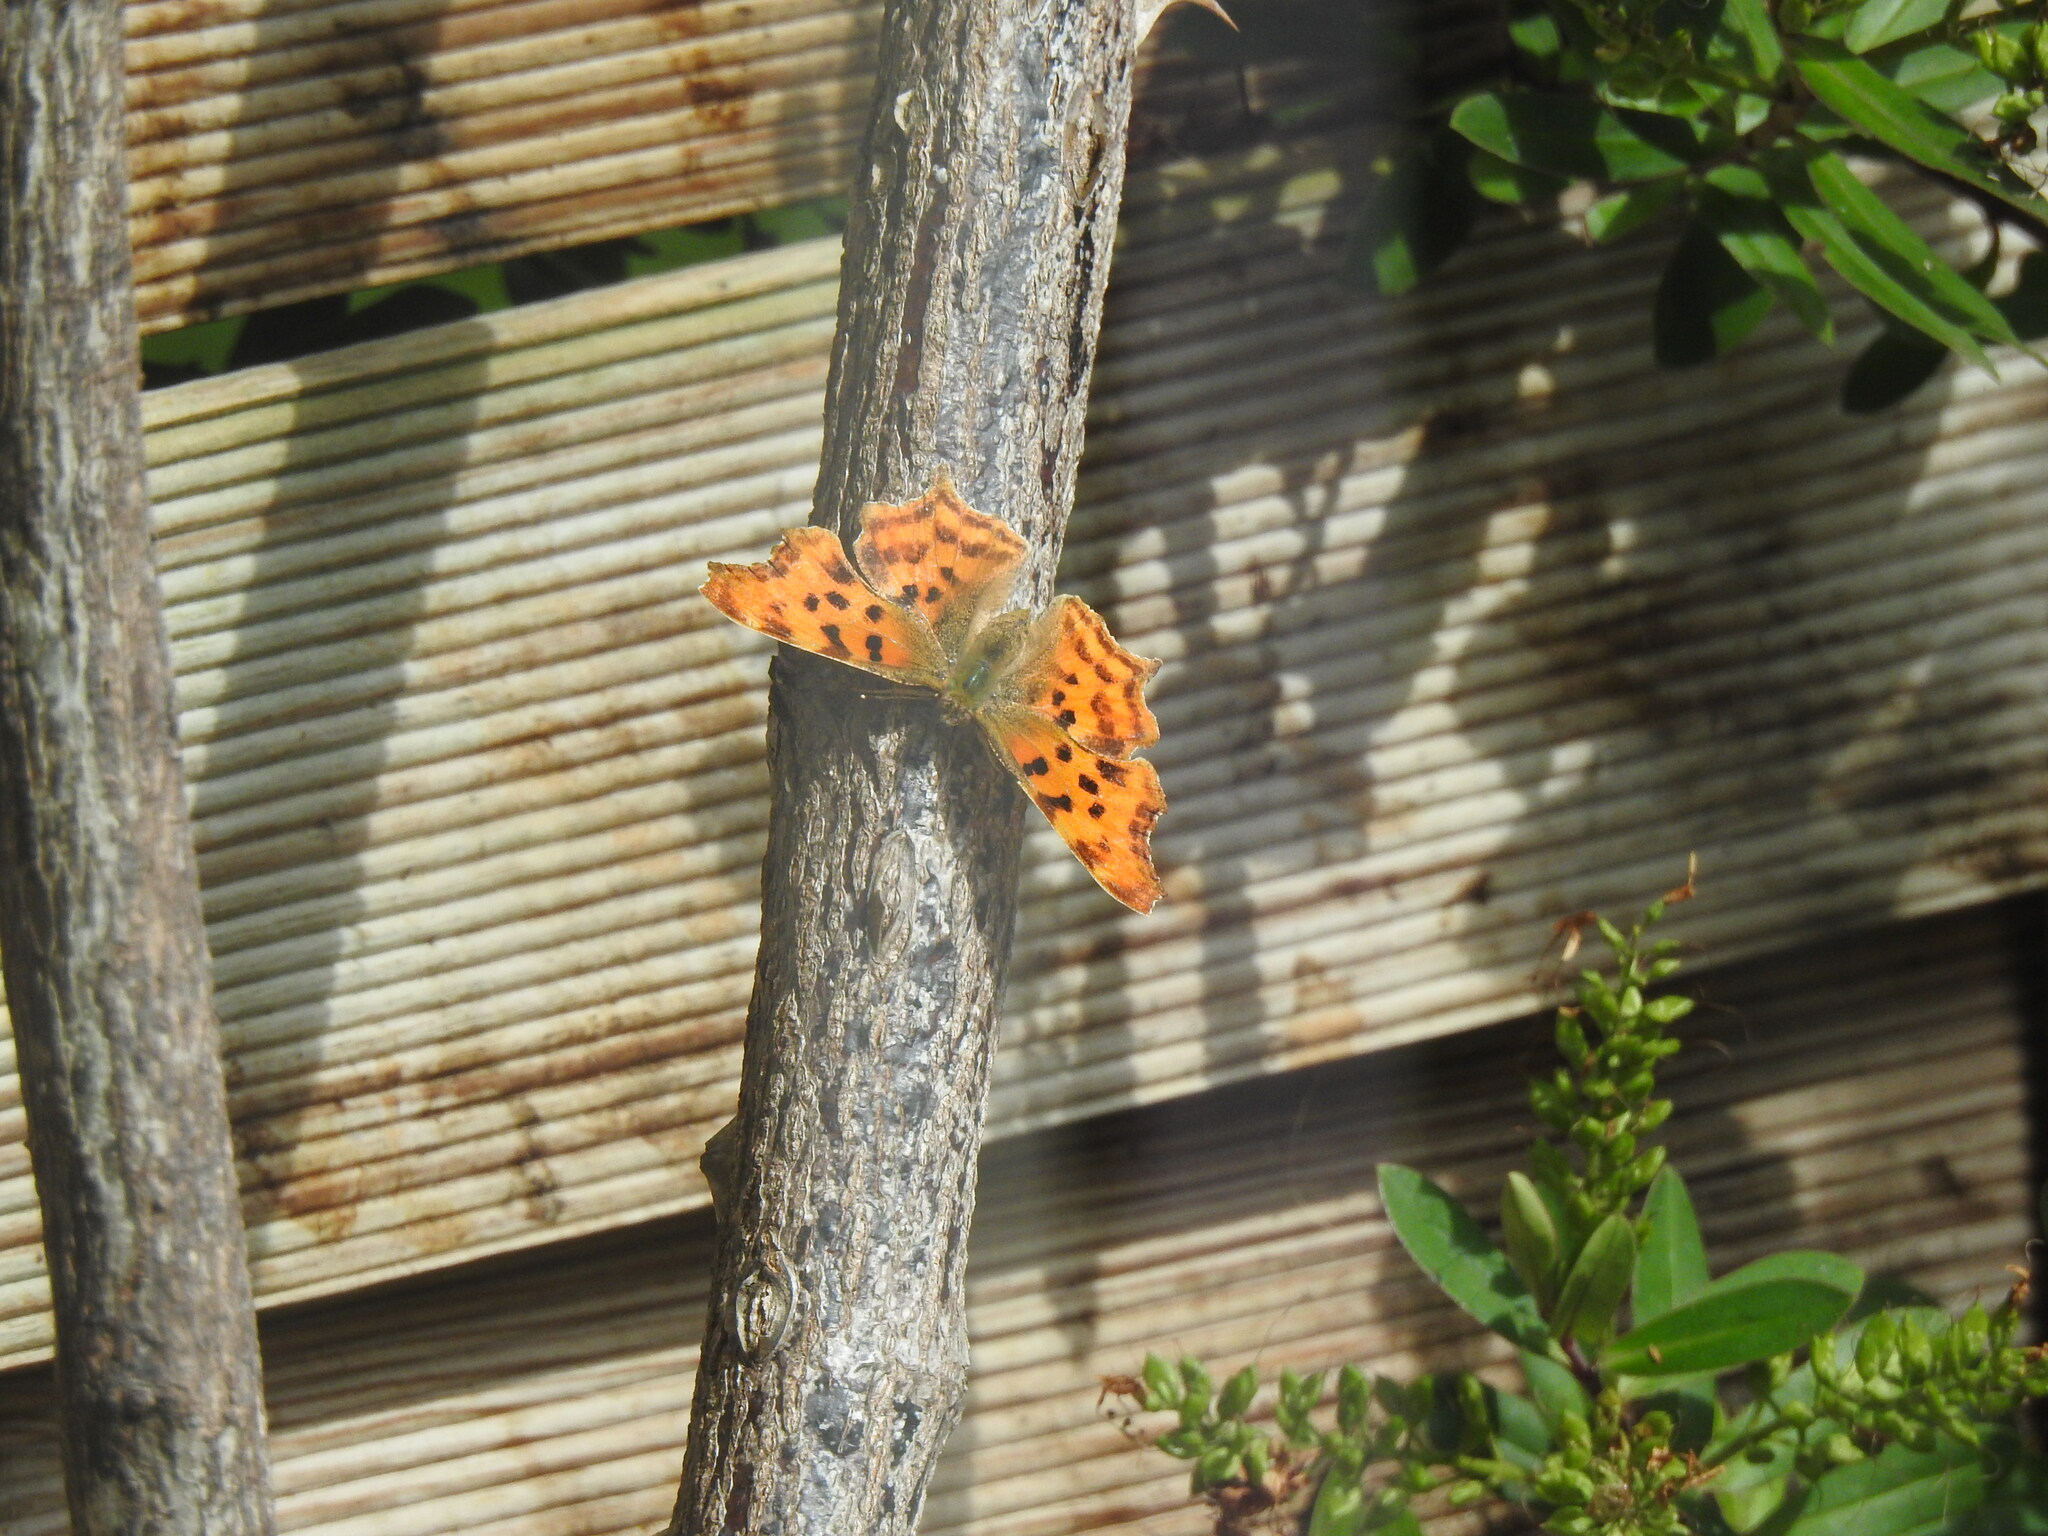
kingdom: Animalia
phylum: Arthropoda
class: Insecta
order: Lepidoptera
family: Nymphalidae
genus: Polygonia
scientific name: Polygonia c-album
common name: Comma
